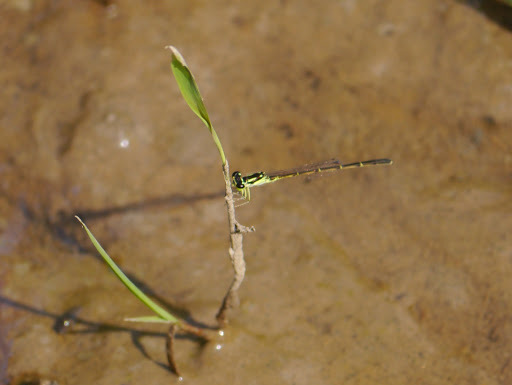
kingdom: Animalia
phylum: Arthropoda
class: Insecta
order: Odonata
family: Coenagrionidae
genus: Ischnura
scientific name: Ischnura posita
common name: Fragile forktail
